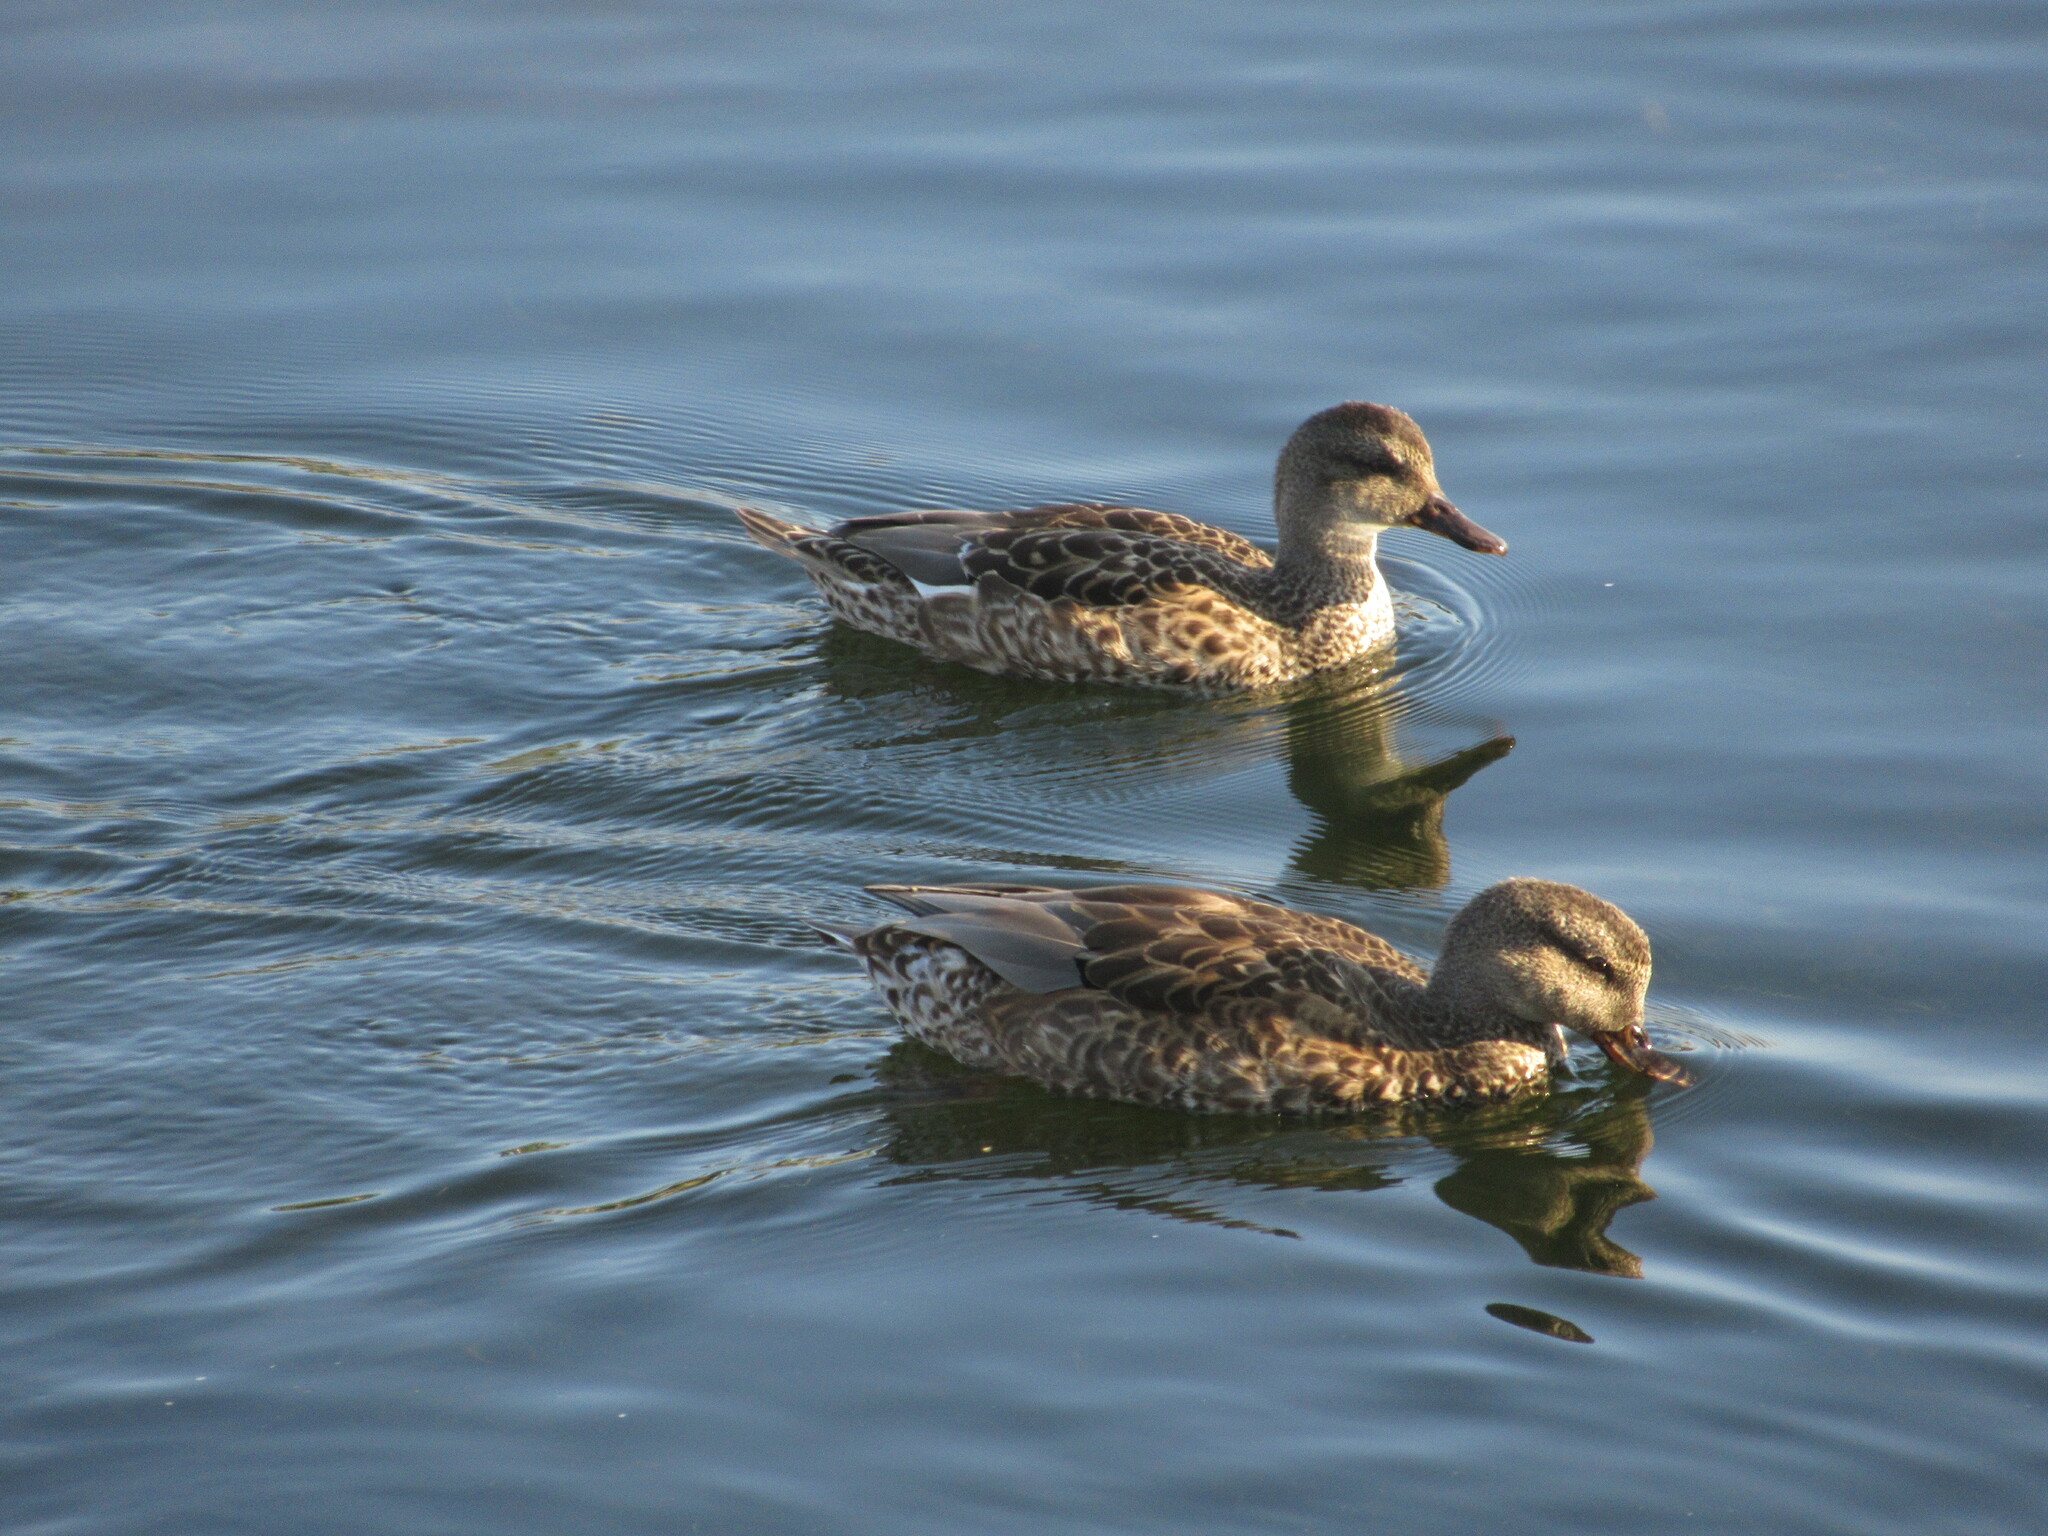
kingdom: Animalia
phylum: Chordata
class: Aves
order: Anseriformes
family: Anatidae
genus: Mareca
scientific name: Mareca strepera
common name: Gadwall
